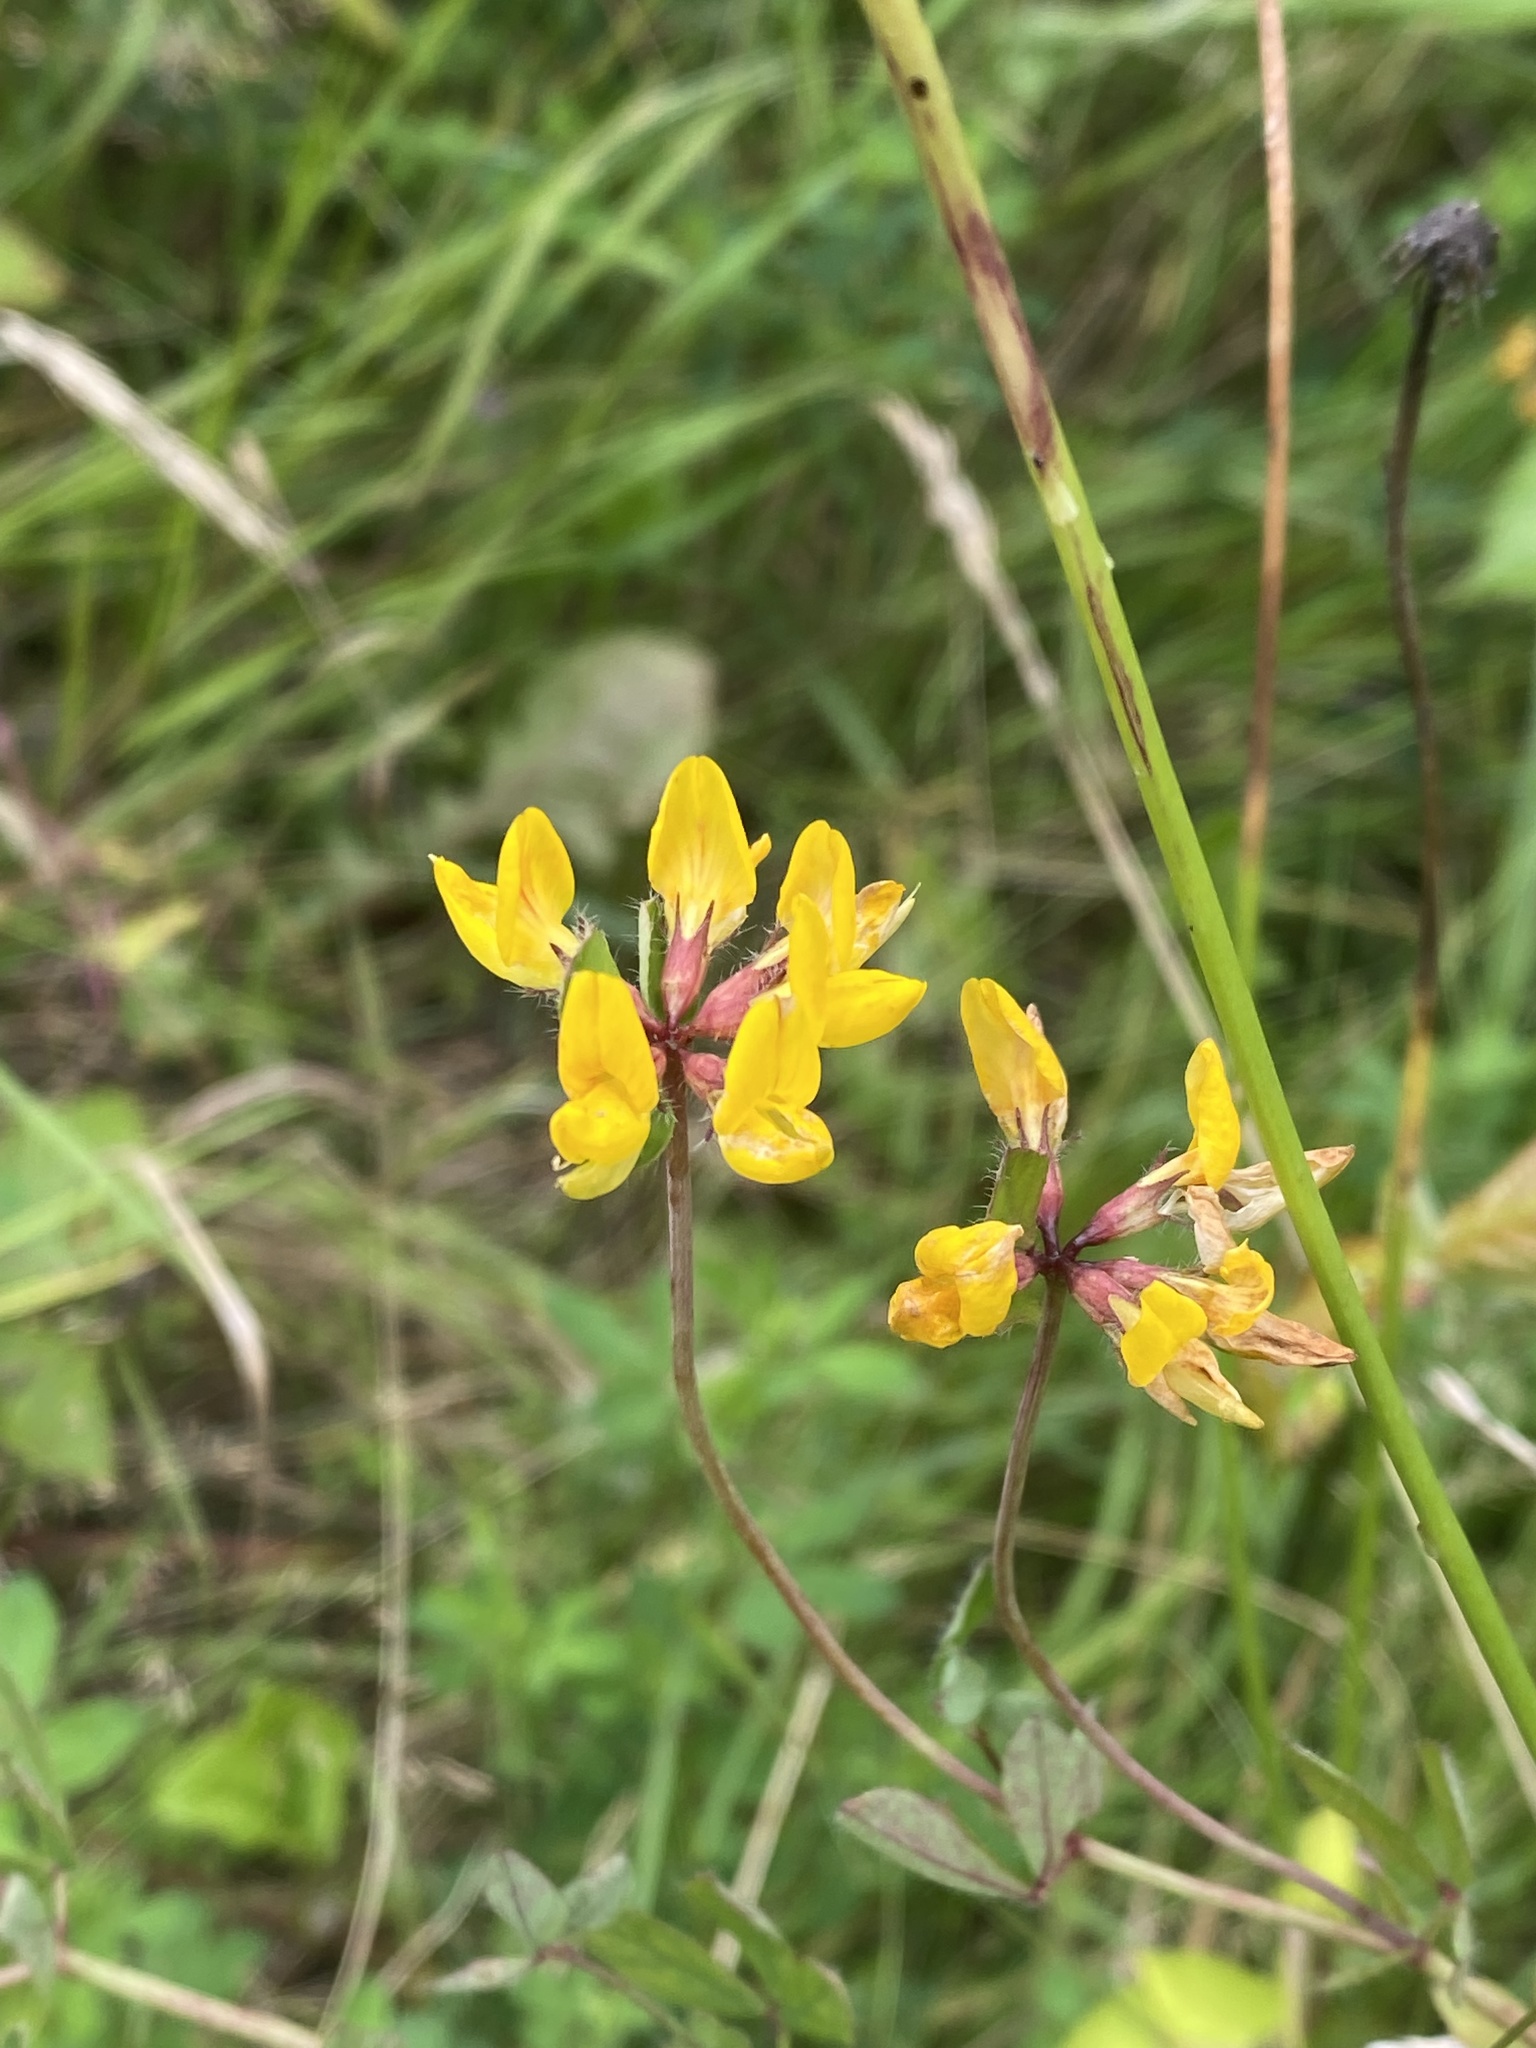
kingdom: Plantae
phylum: Tracheophyta
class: Magnoliopsida
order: Fabales
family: Fabaceae
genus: Lotus
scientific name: Lotus pedunculatus
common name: Greater birdsfoot-trefoil
